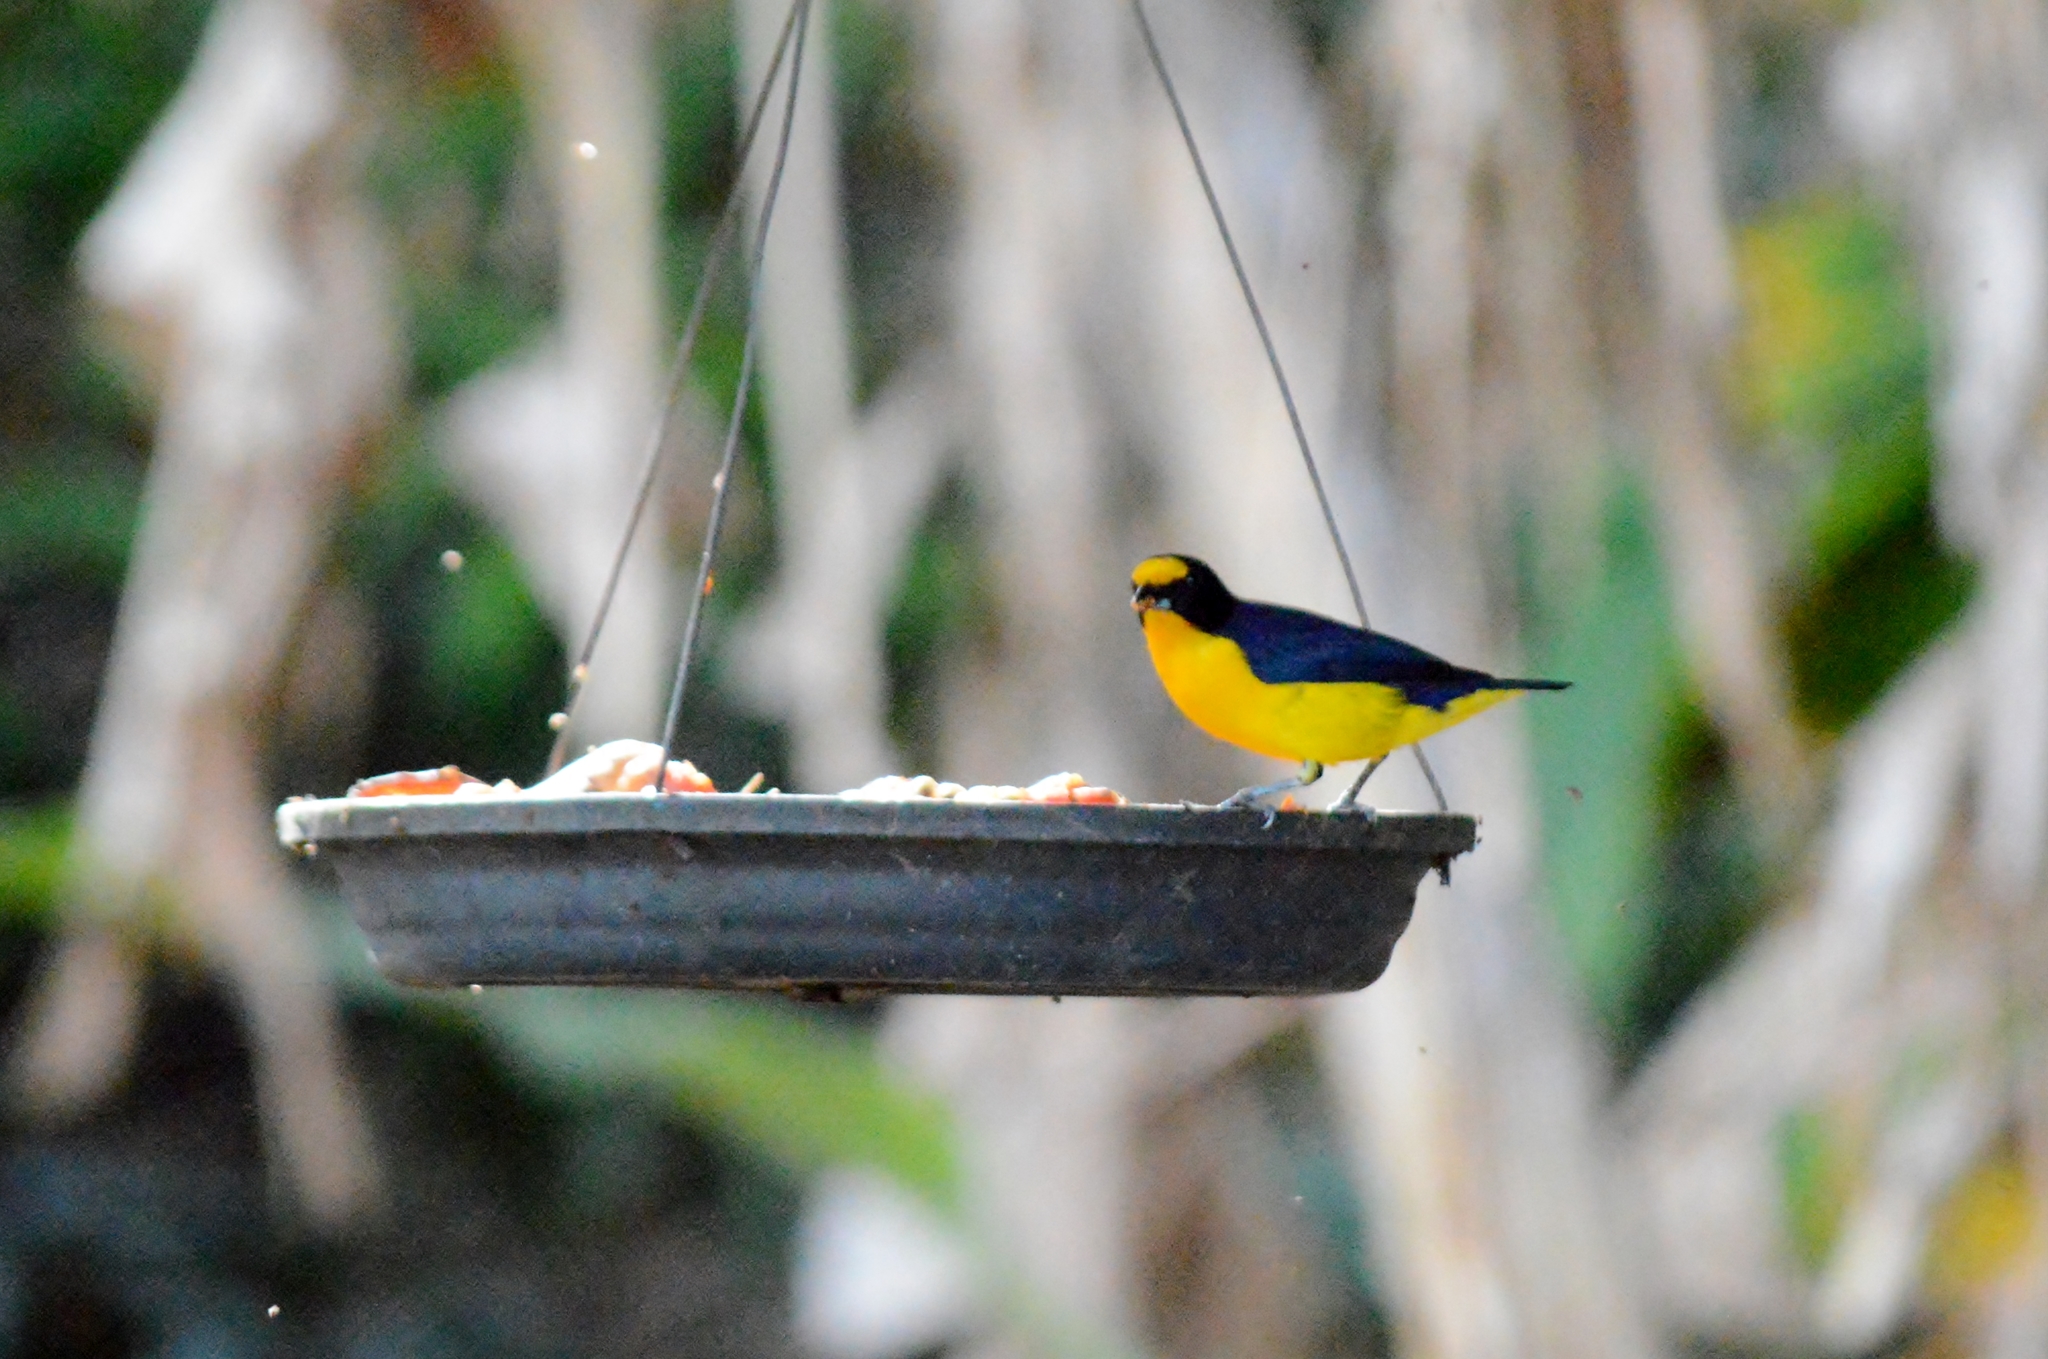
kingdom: Animalia
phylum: Chordata
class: Aves
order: Passeriformes
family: Fringillidae
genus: Euphonia
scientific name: Euphonia violacea
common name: Violaceous euphonia
